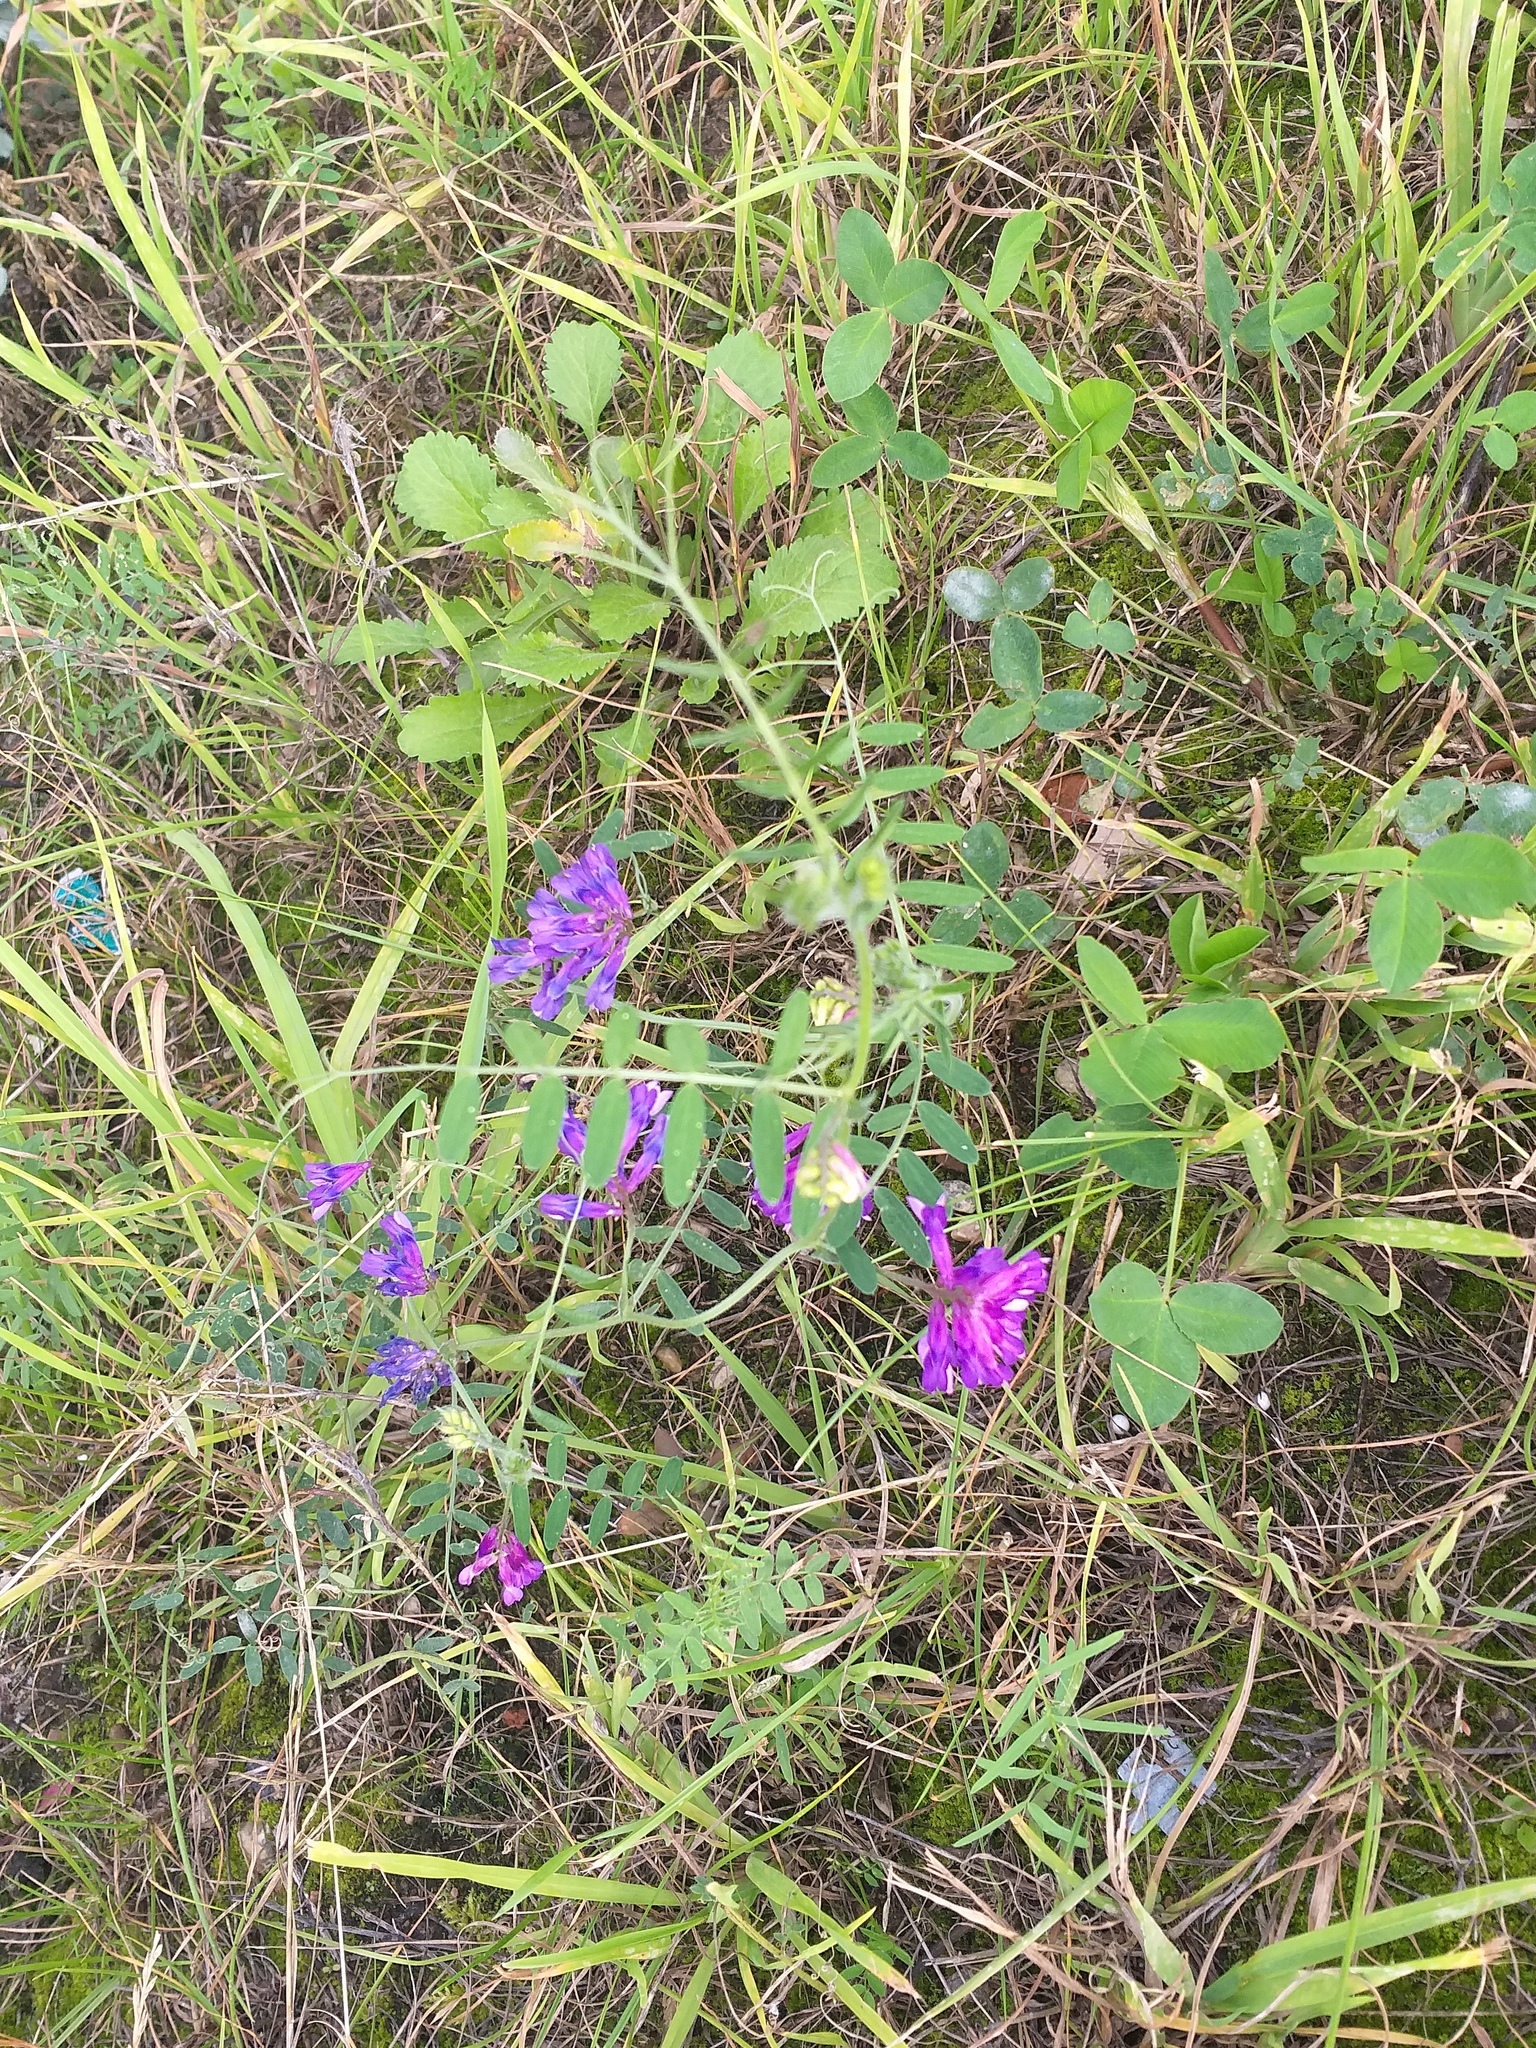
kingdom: Plantae
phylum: Tracheophyta
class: Magnoliopsida
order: Fabales
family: Fabaceae
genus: Vicia
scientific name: Vicia villosa
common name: Fodder vetch
